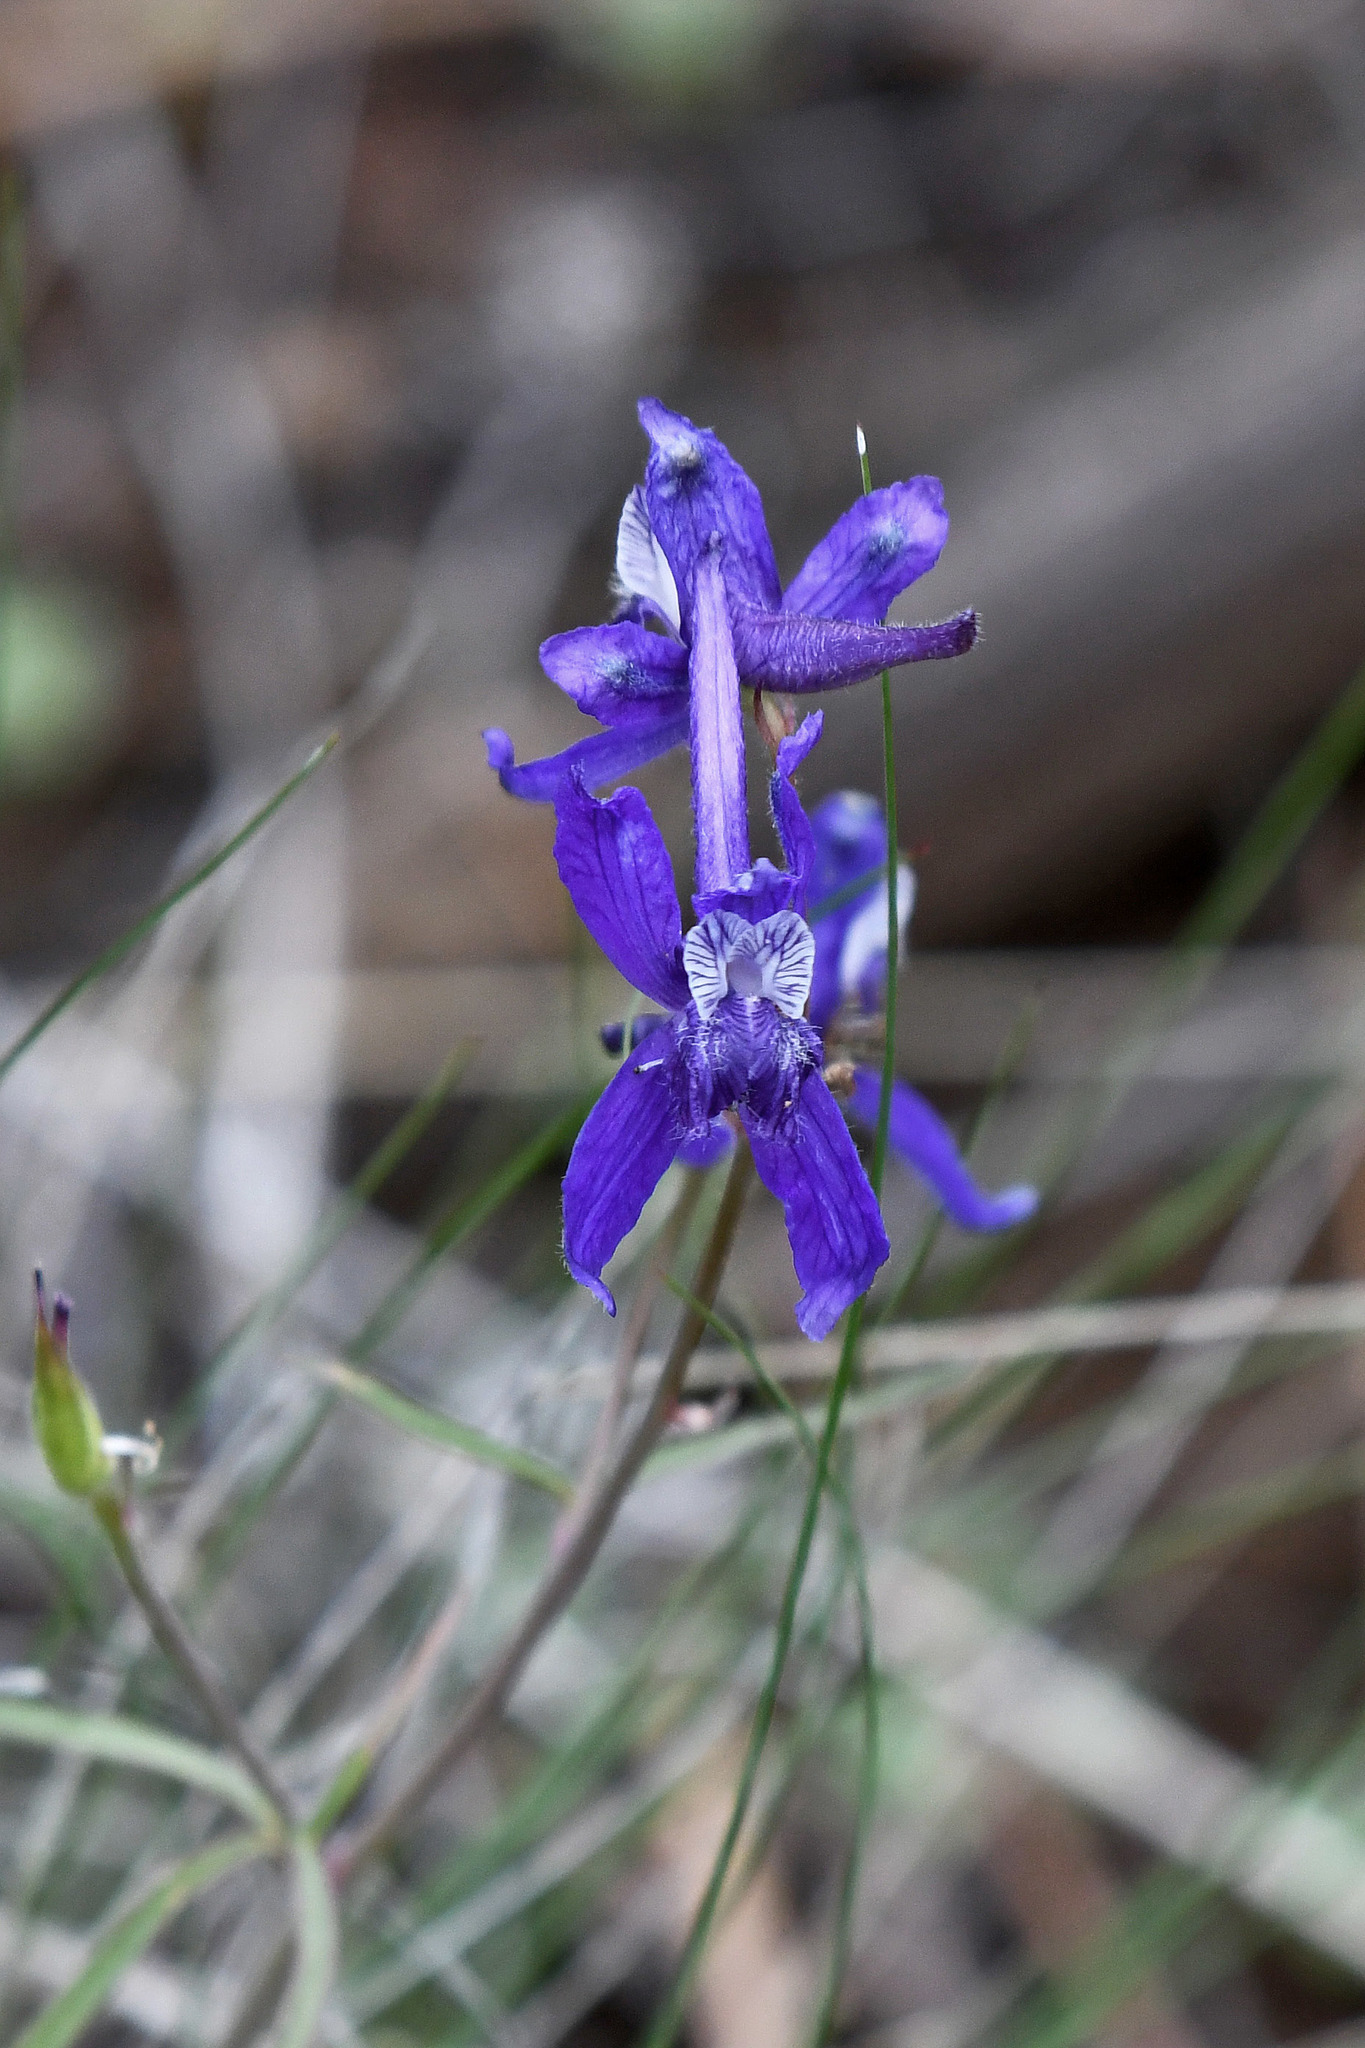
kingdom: Plantae
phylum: Tracheophyta
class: Magnoliopsida
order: Ranunculales
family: Ranunculaceae
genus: Delphinium
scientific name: Delphinium nuttallianum
